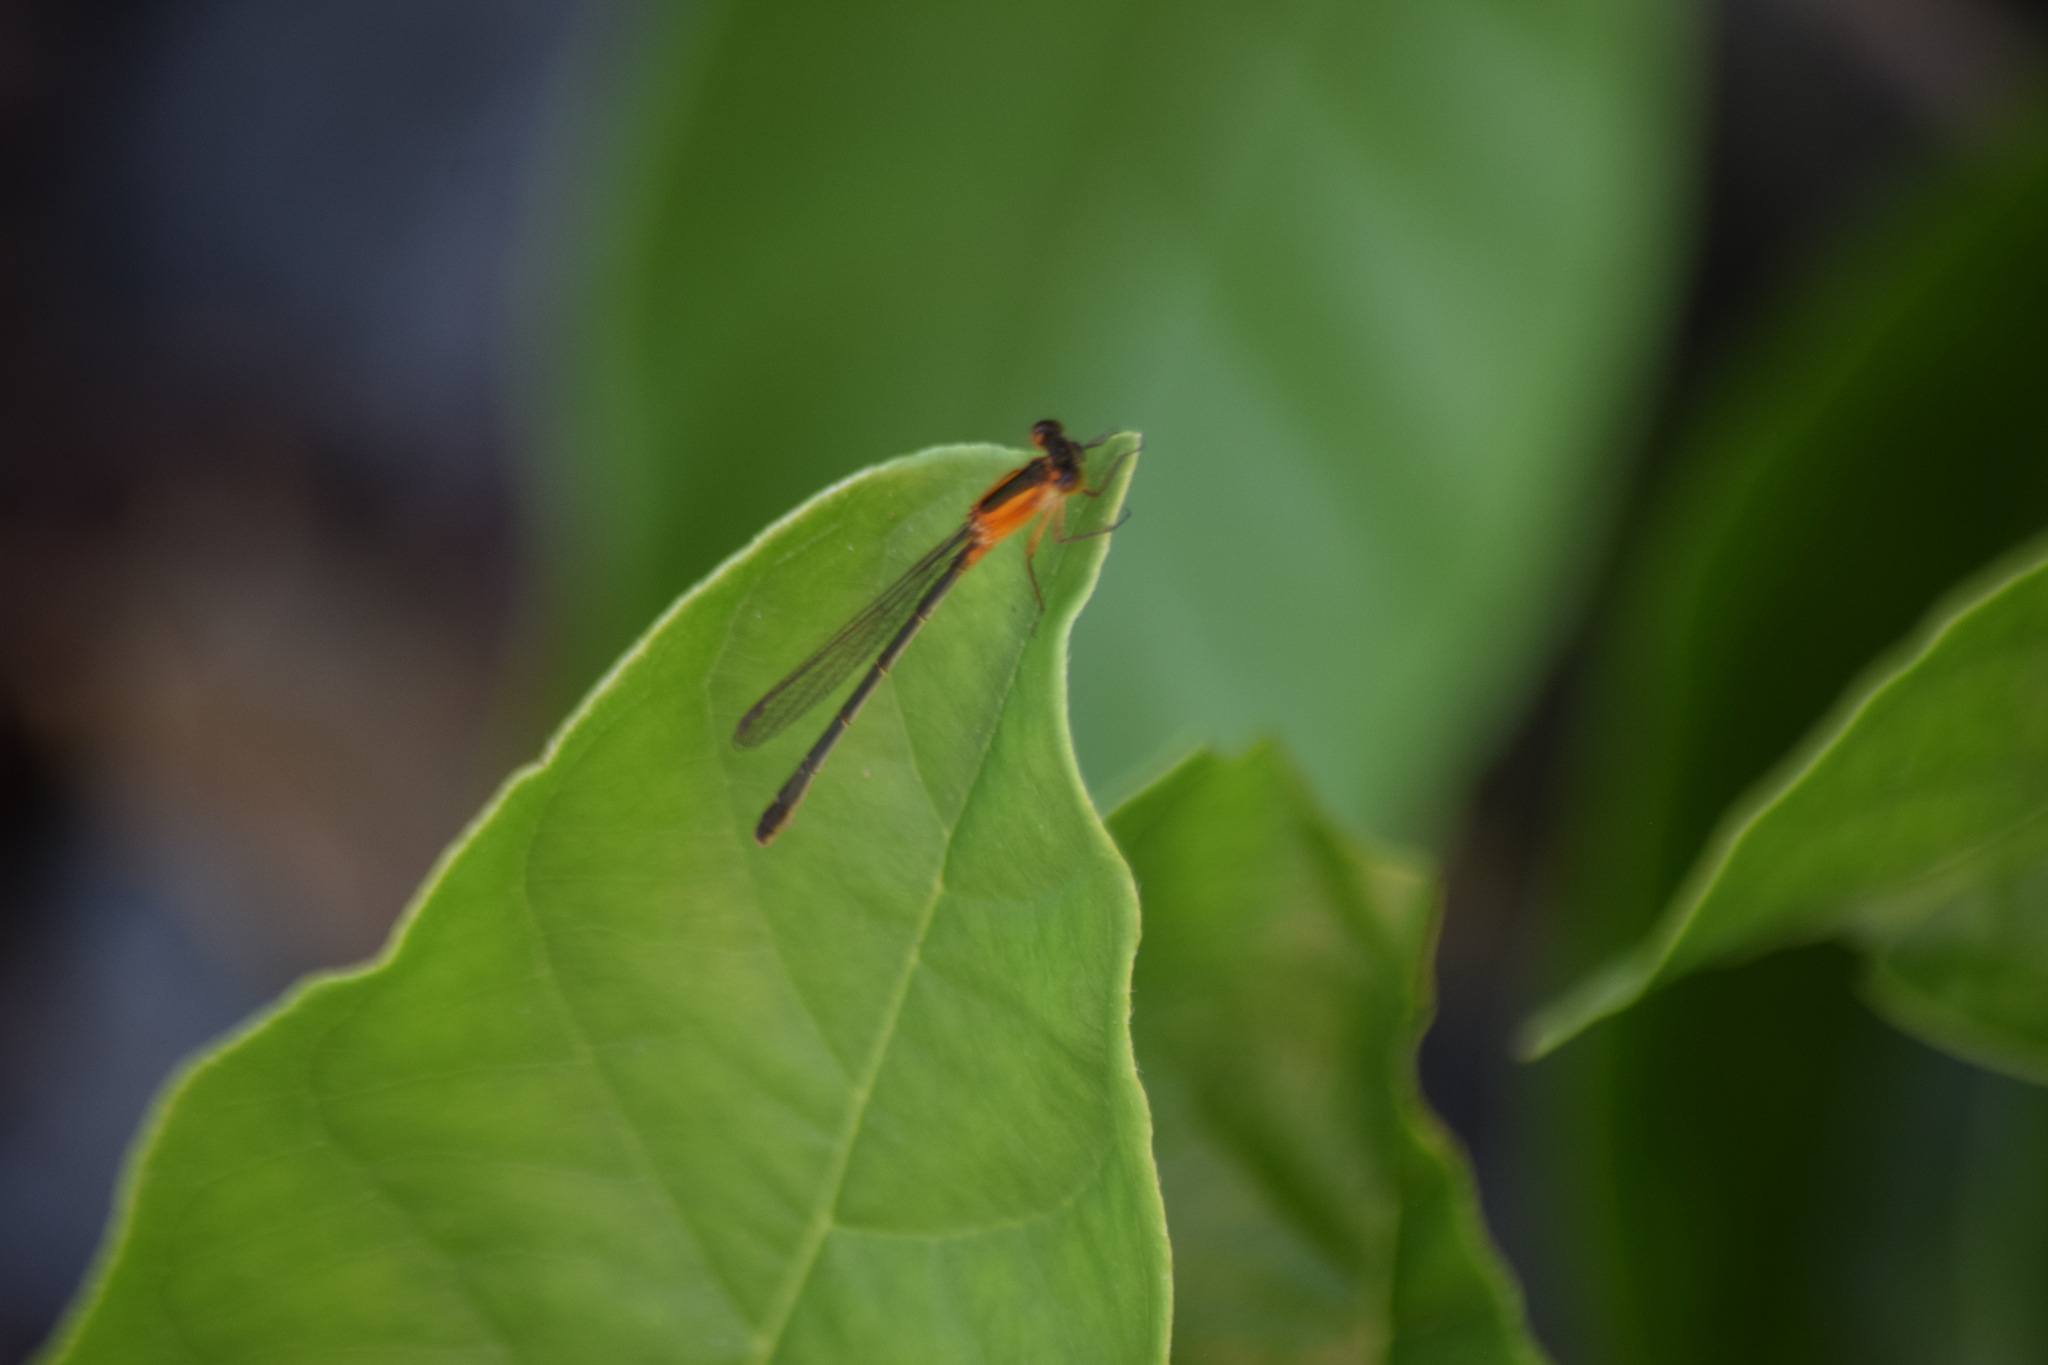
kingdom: Animalia
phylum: Arthropoda
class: Insecta
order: Odonata
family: Coenagrionidae
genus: Ischnura
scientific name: Ischnura ramburii
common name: Rambur's forktail
